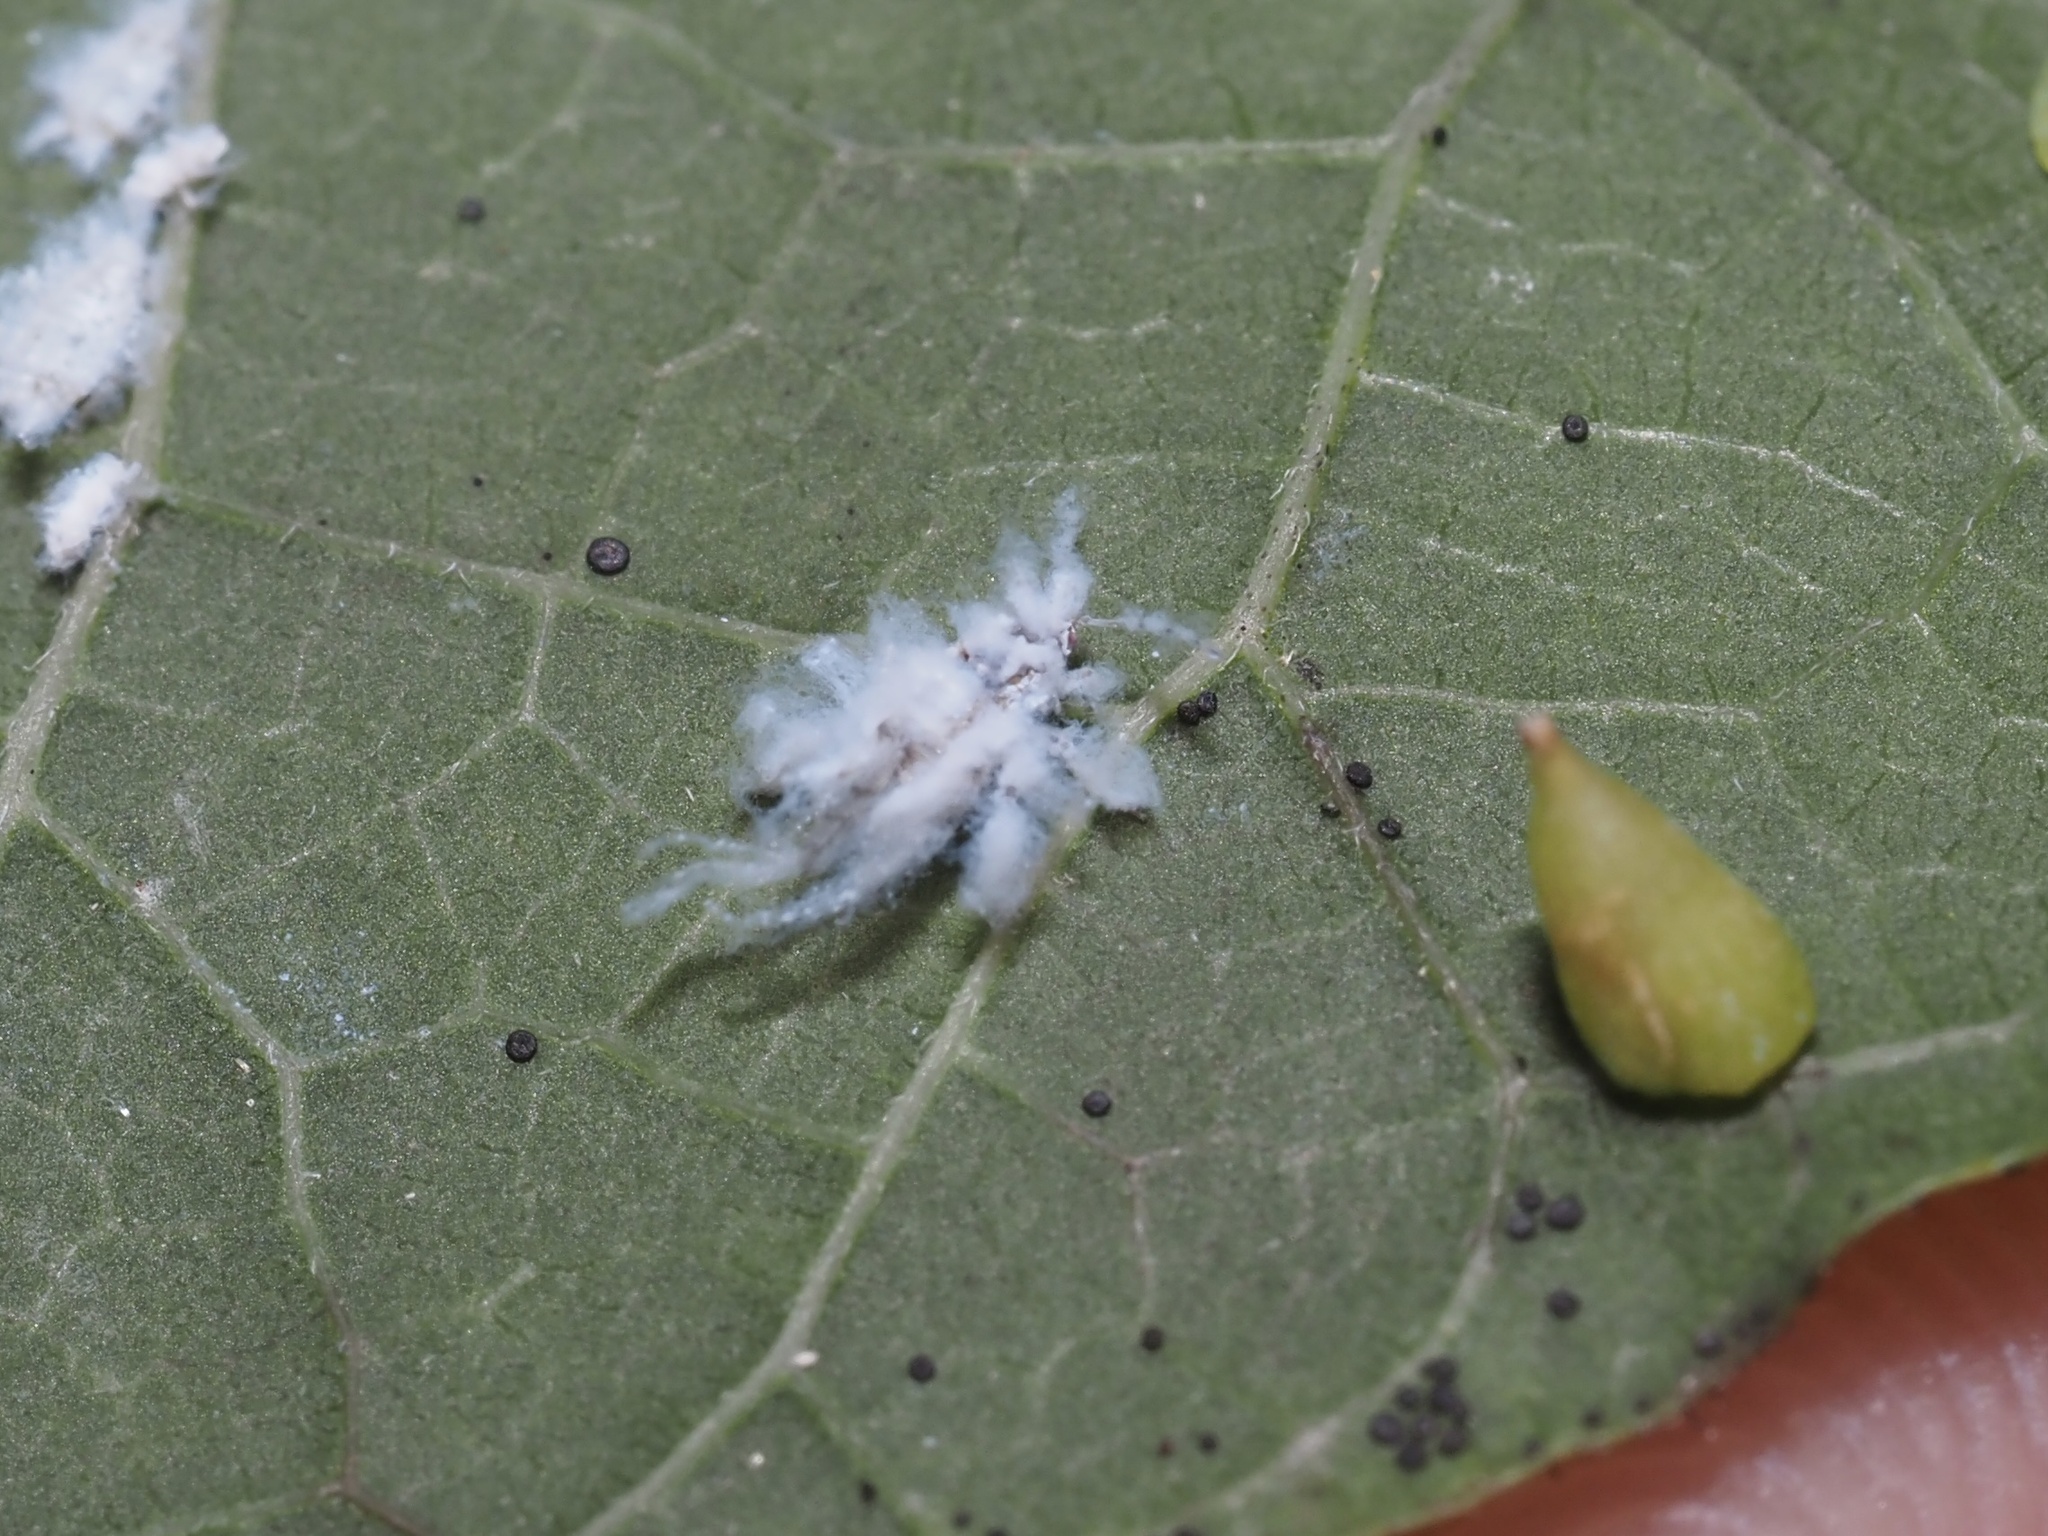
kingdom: Animalia
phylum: Arthropoda
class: Insecta
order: Hemiptera
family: Aphididae
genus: Shivaphis
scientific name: Shivaphis celti
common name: Asian wooly hackberry aphid
